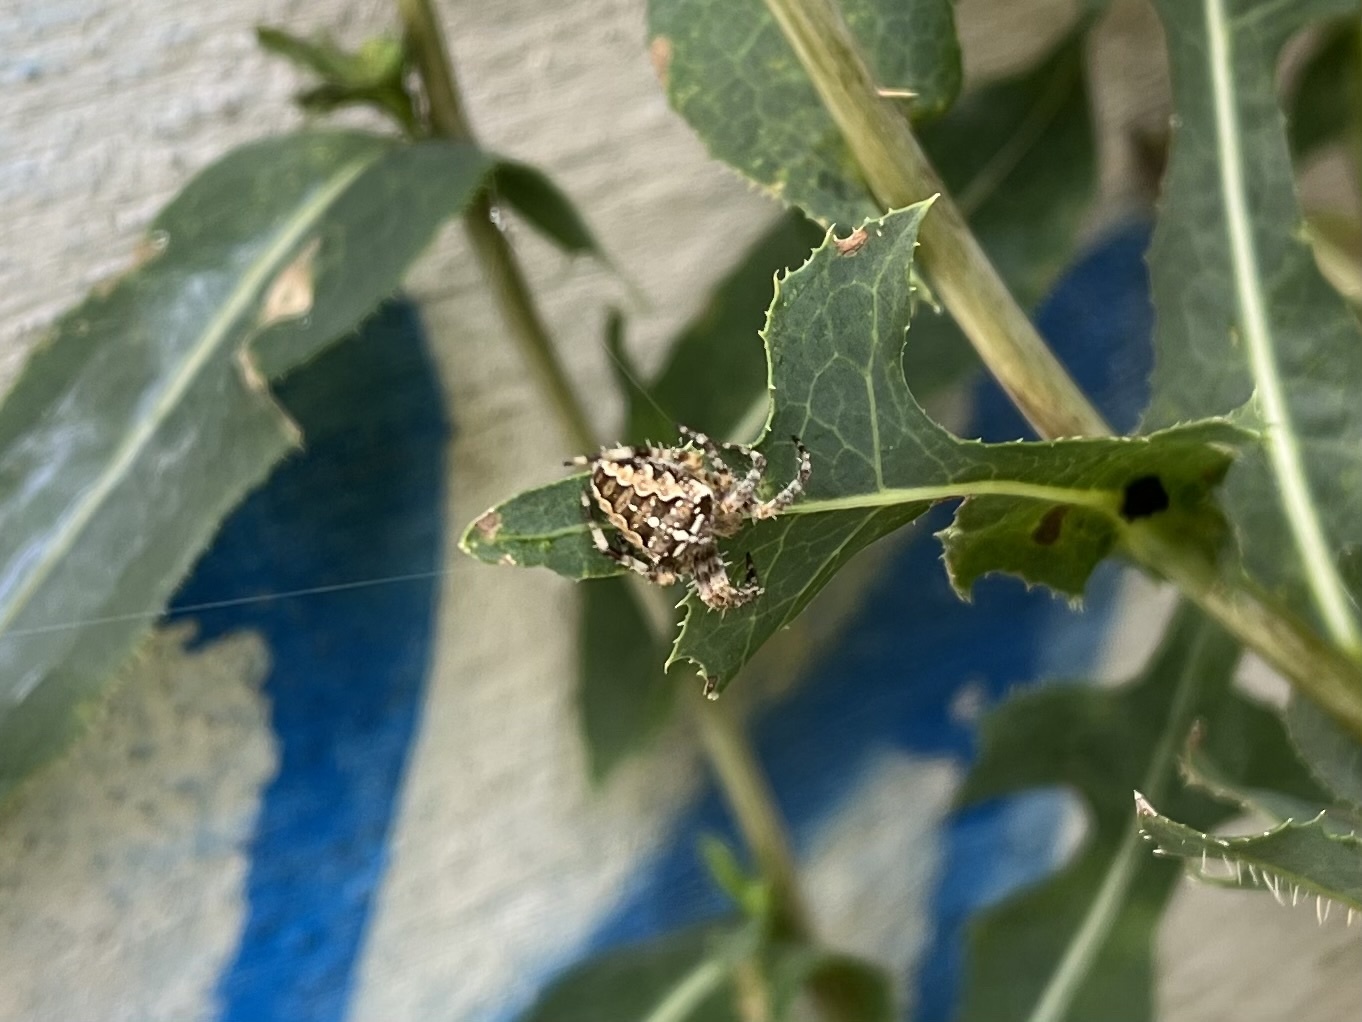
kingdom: Animalia
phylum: Arthropoda
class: Arachnida
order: Araneae
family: Araneidae
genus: Araneus
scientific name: Araneus diadematus
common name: Cross orbweaver
